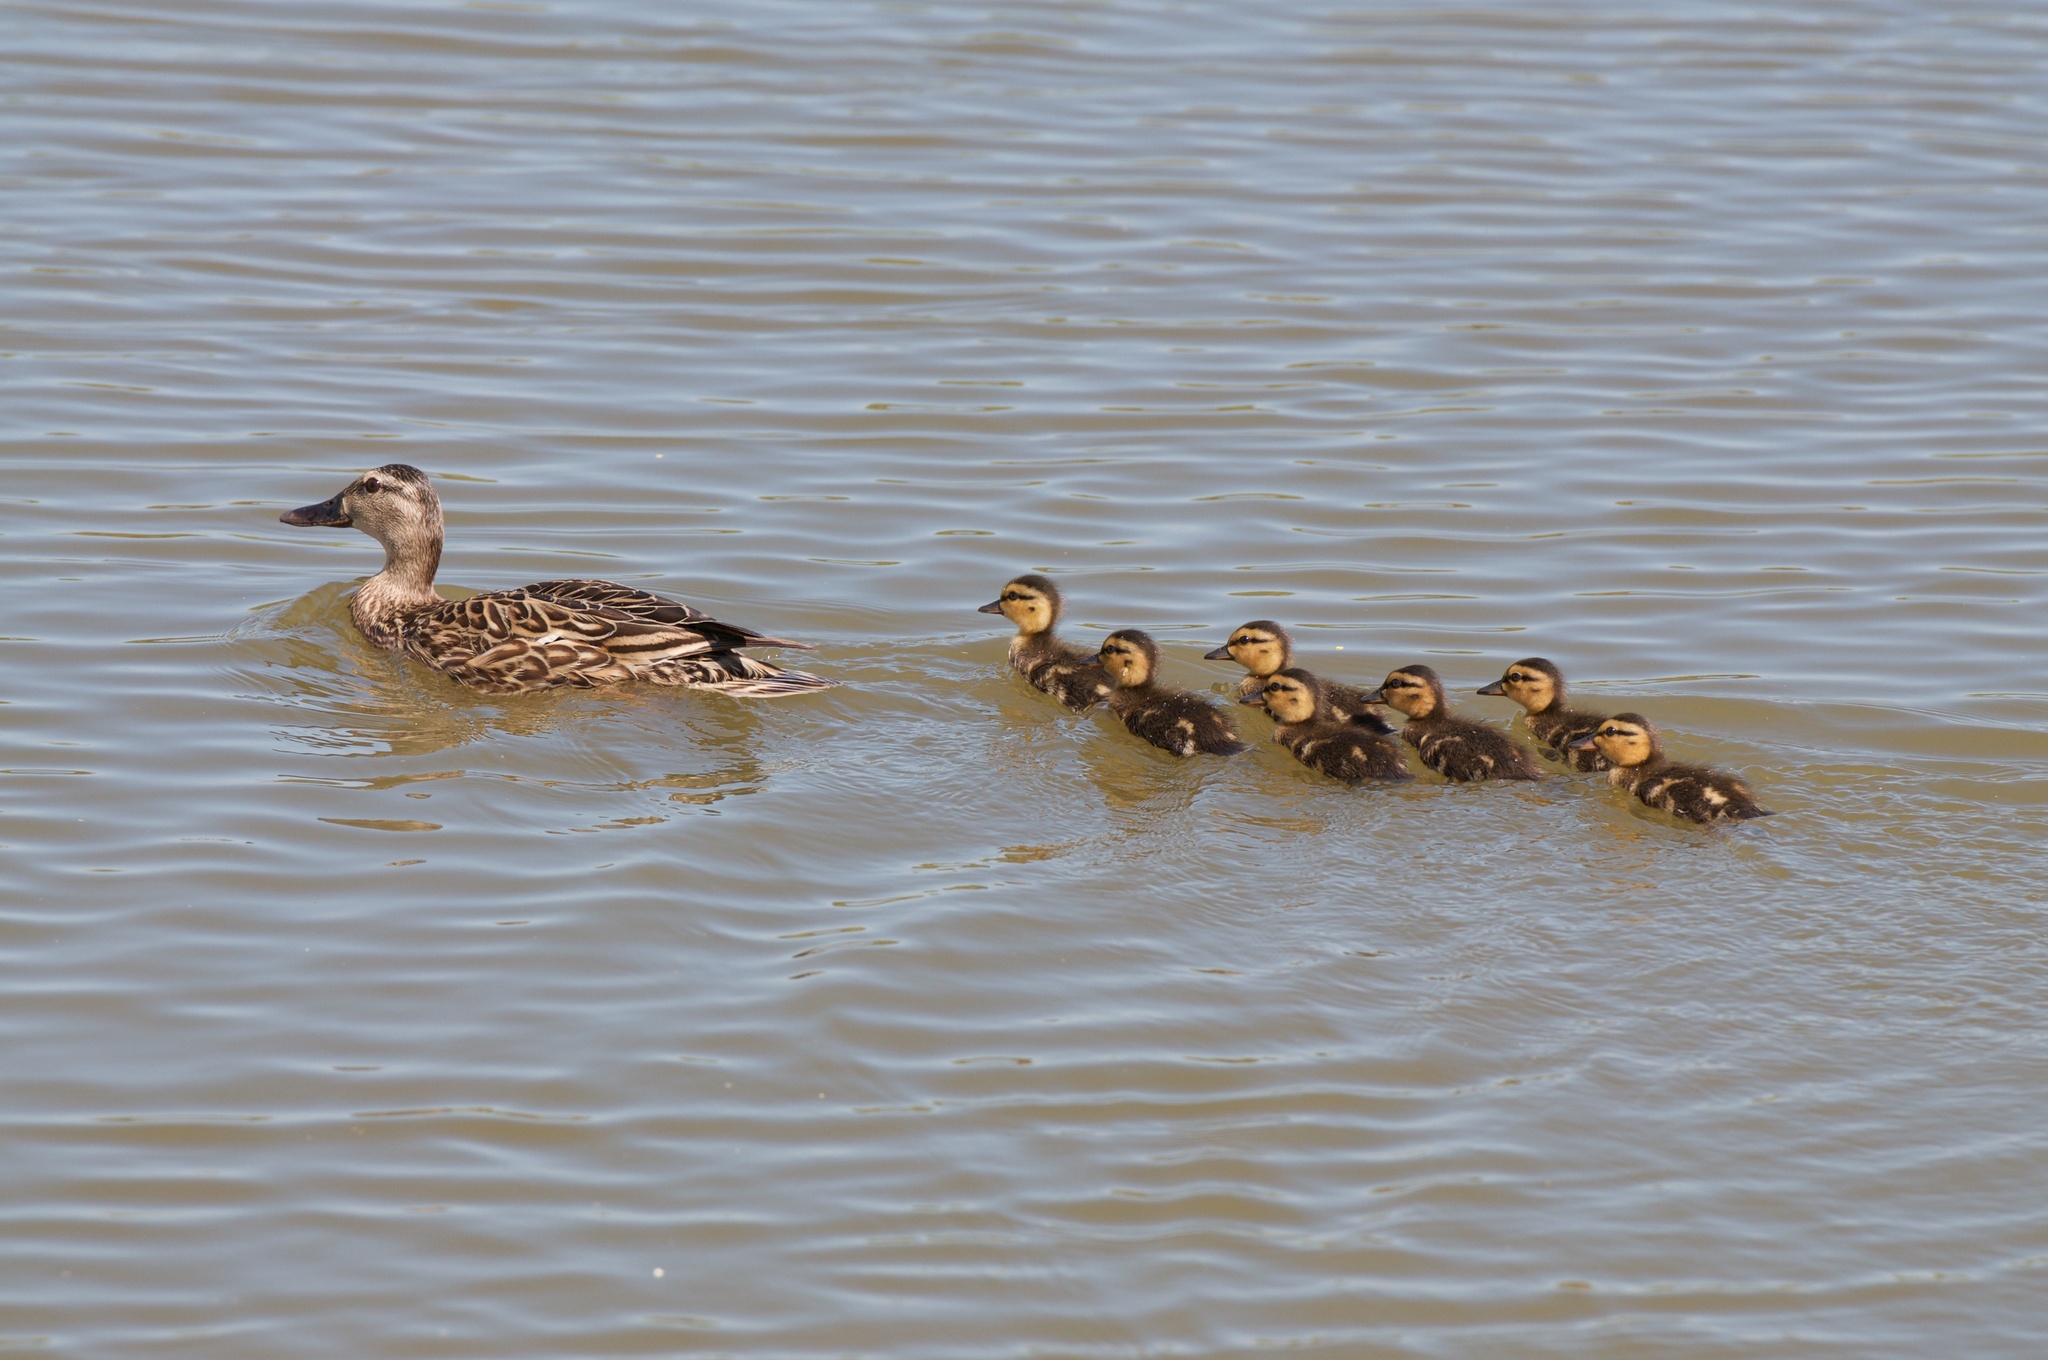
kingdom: Animalia
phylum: Chordata
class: Aves
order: Anseriformes
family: Anatidae
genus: Anas
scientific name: Anas platyrhynchos
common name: Mallard
